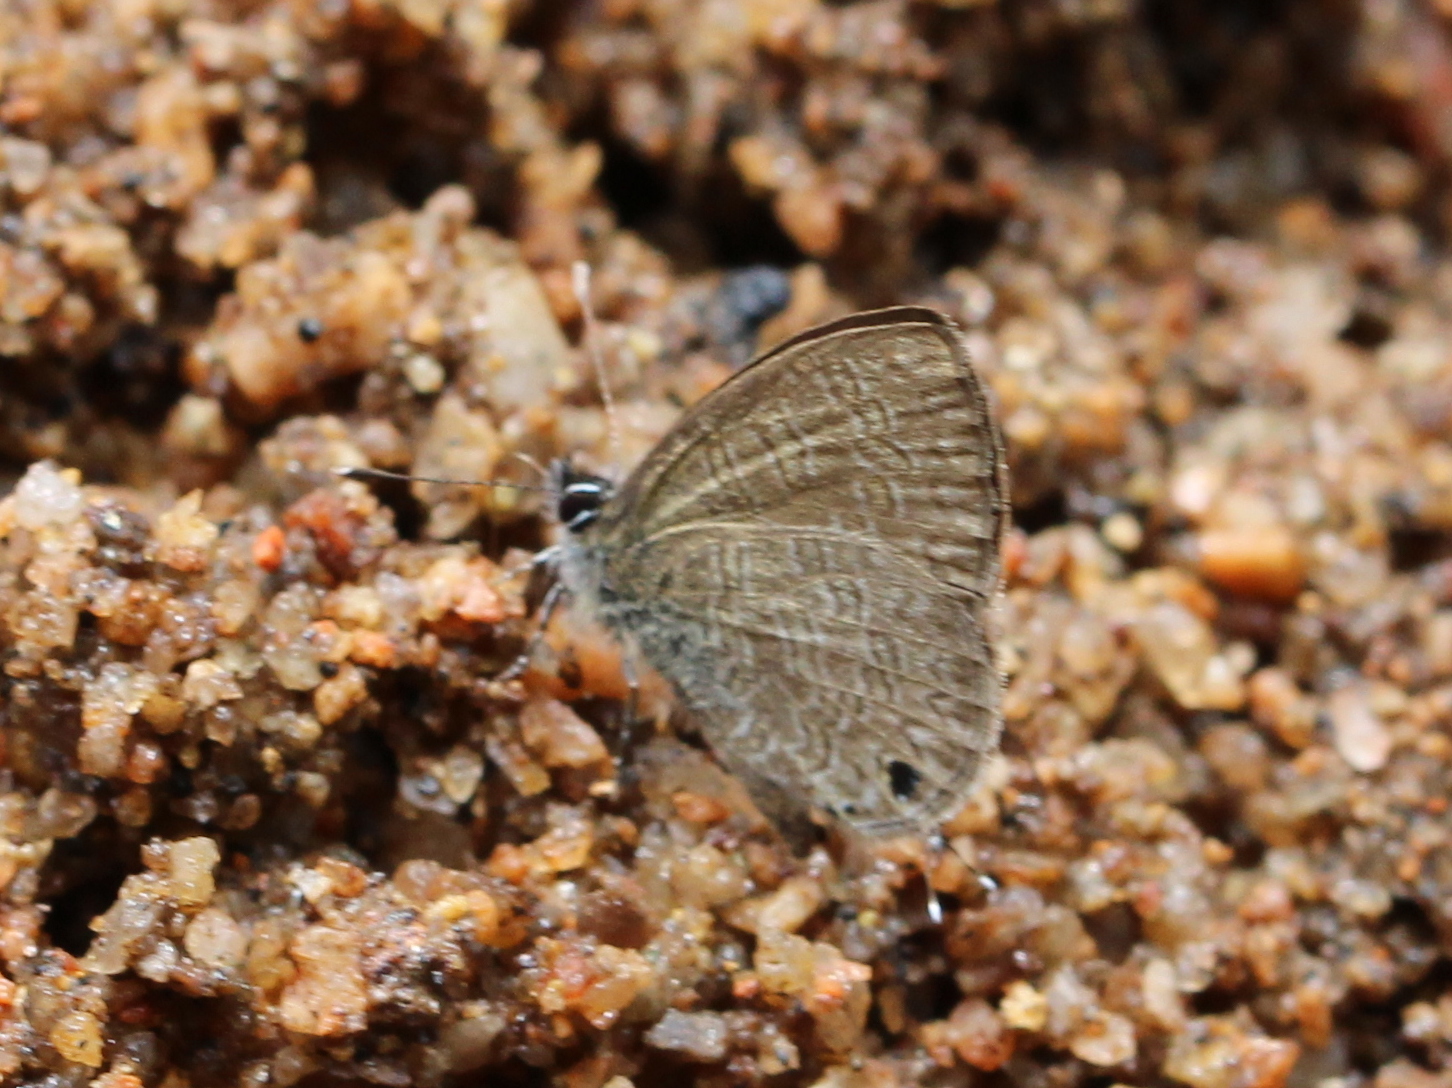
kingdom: Animalia
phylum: Arthropoda
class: Insecta
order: Lepidoptera
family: Lycaenidae
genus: Prosotas
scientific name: Prosotas nora
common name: Common line blue
